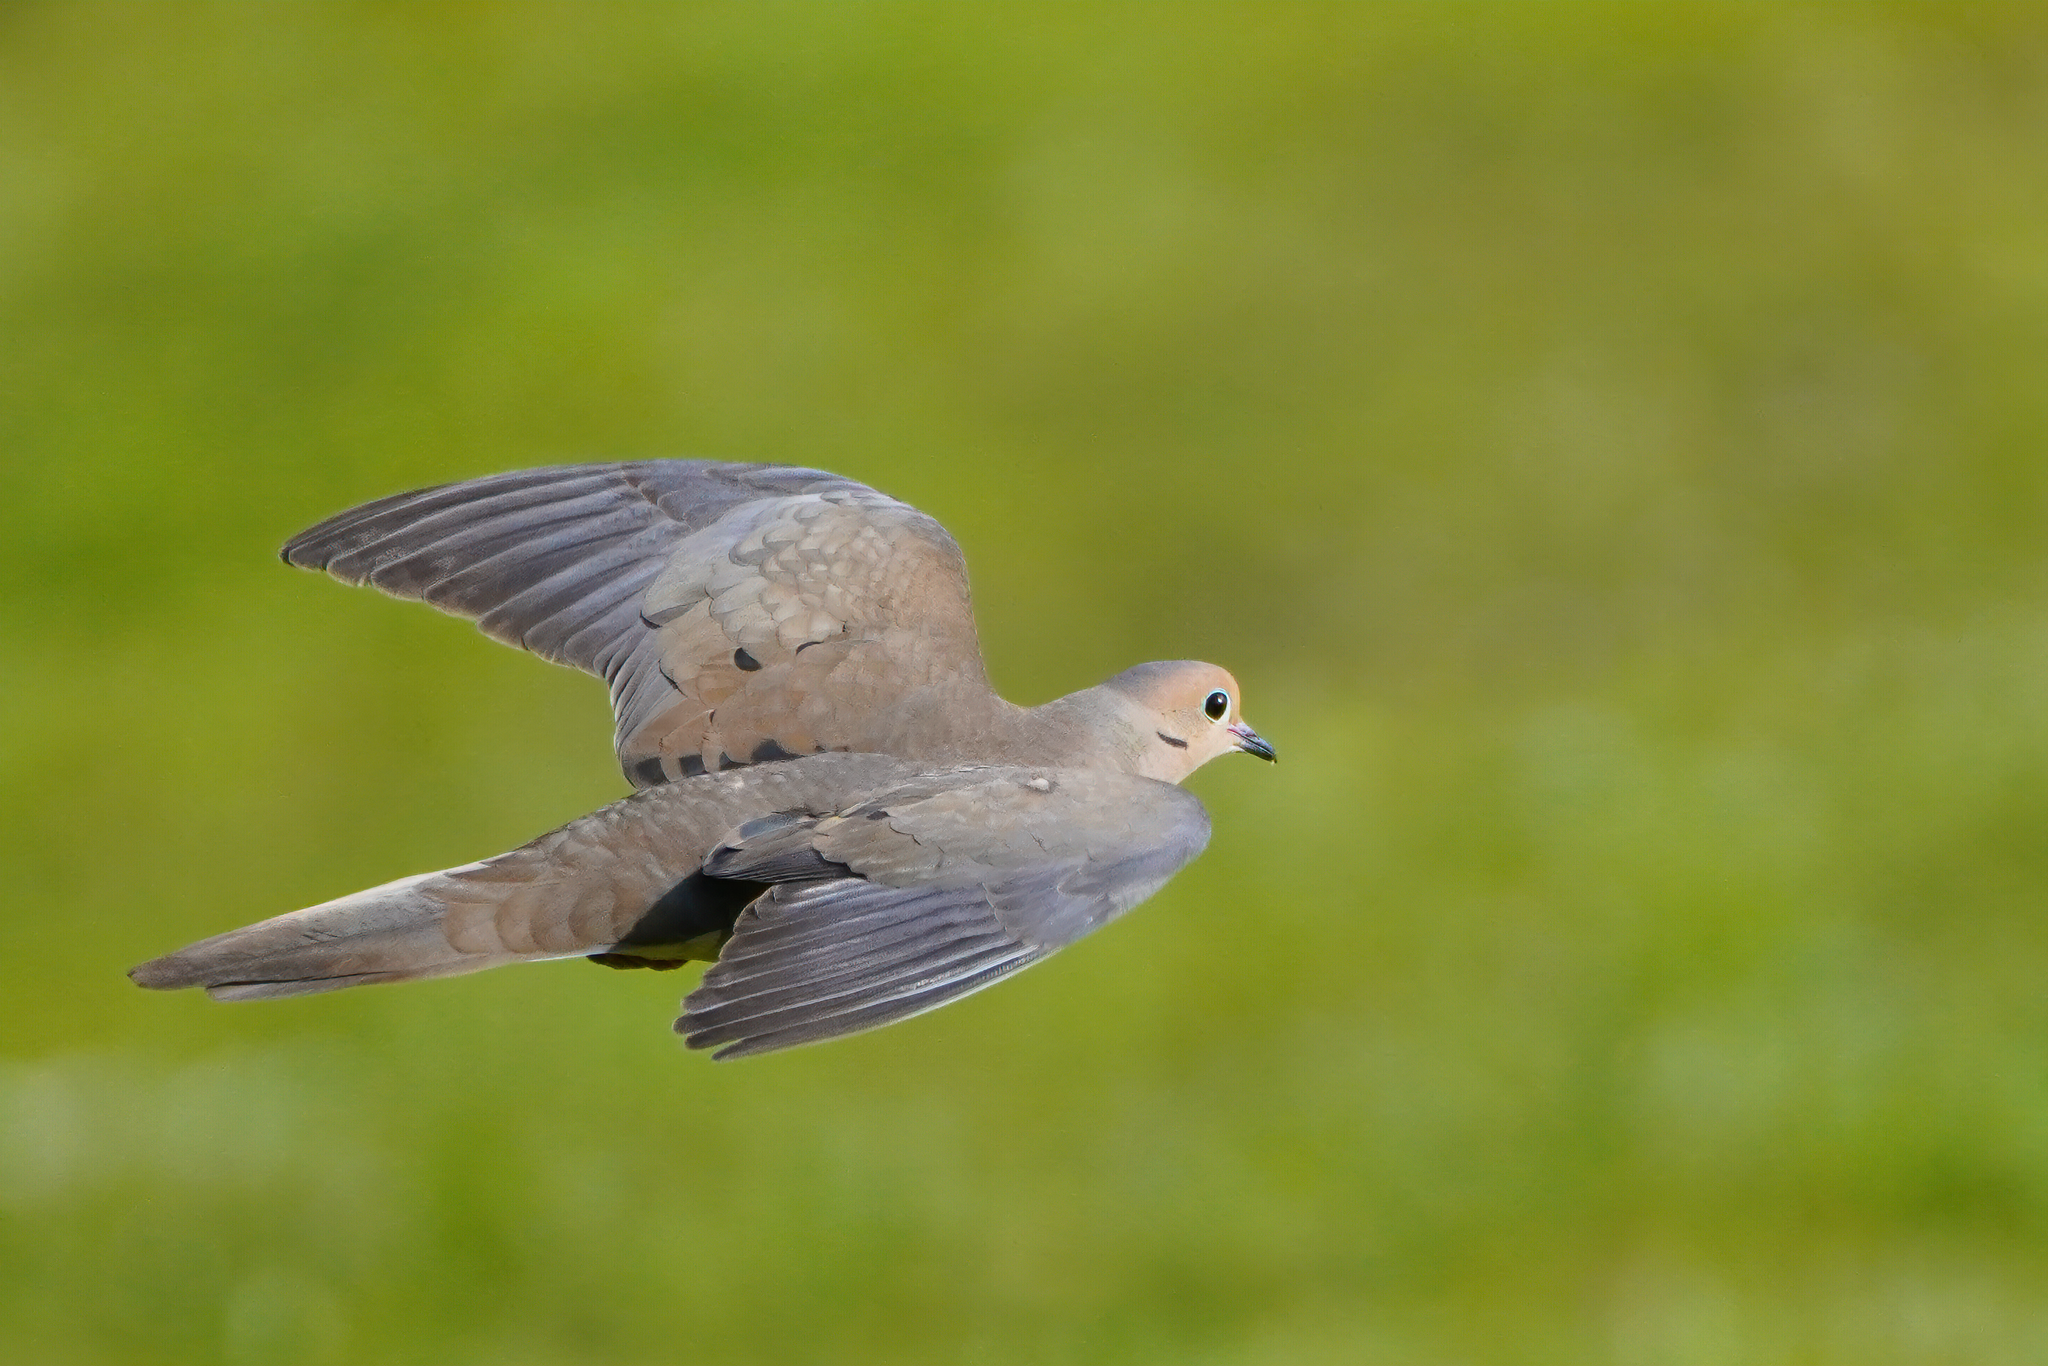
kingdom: Animalia
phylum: Chordata
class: Aves
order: Columbiformes
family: Columbidae
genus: Zenaida
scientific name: Zenaida macroura
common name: Mourning dove
